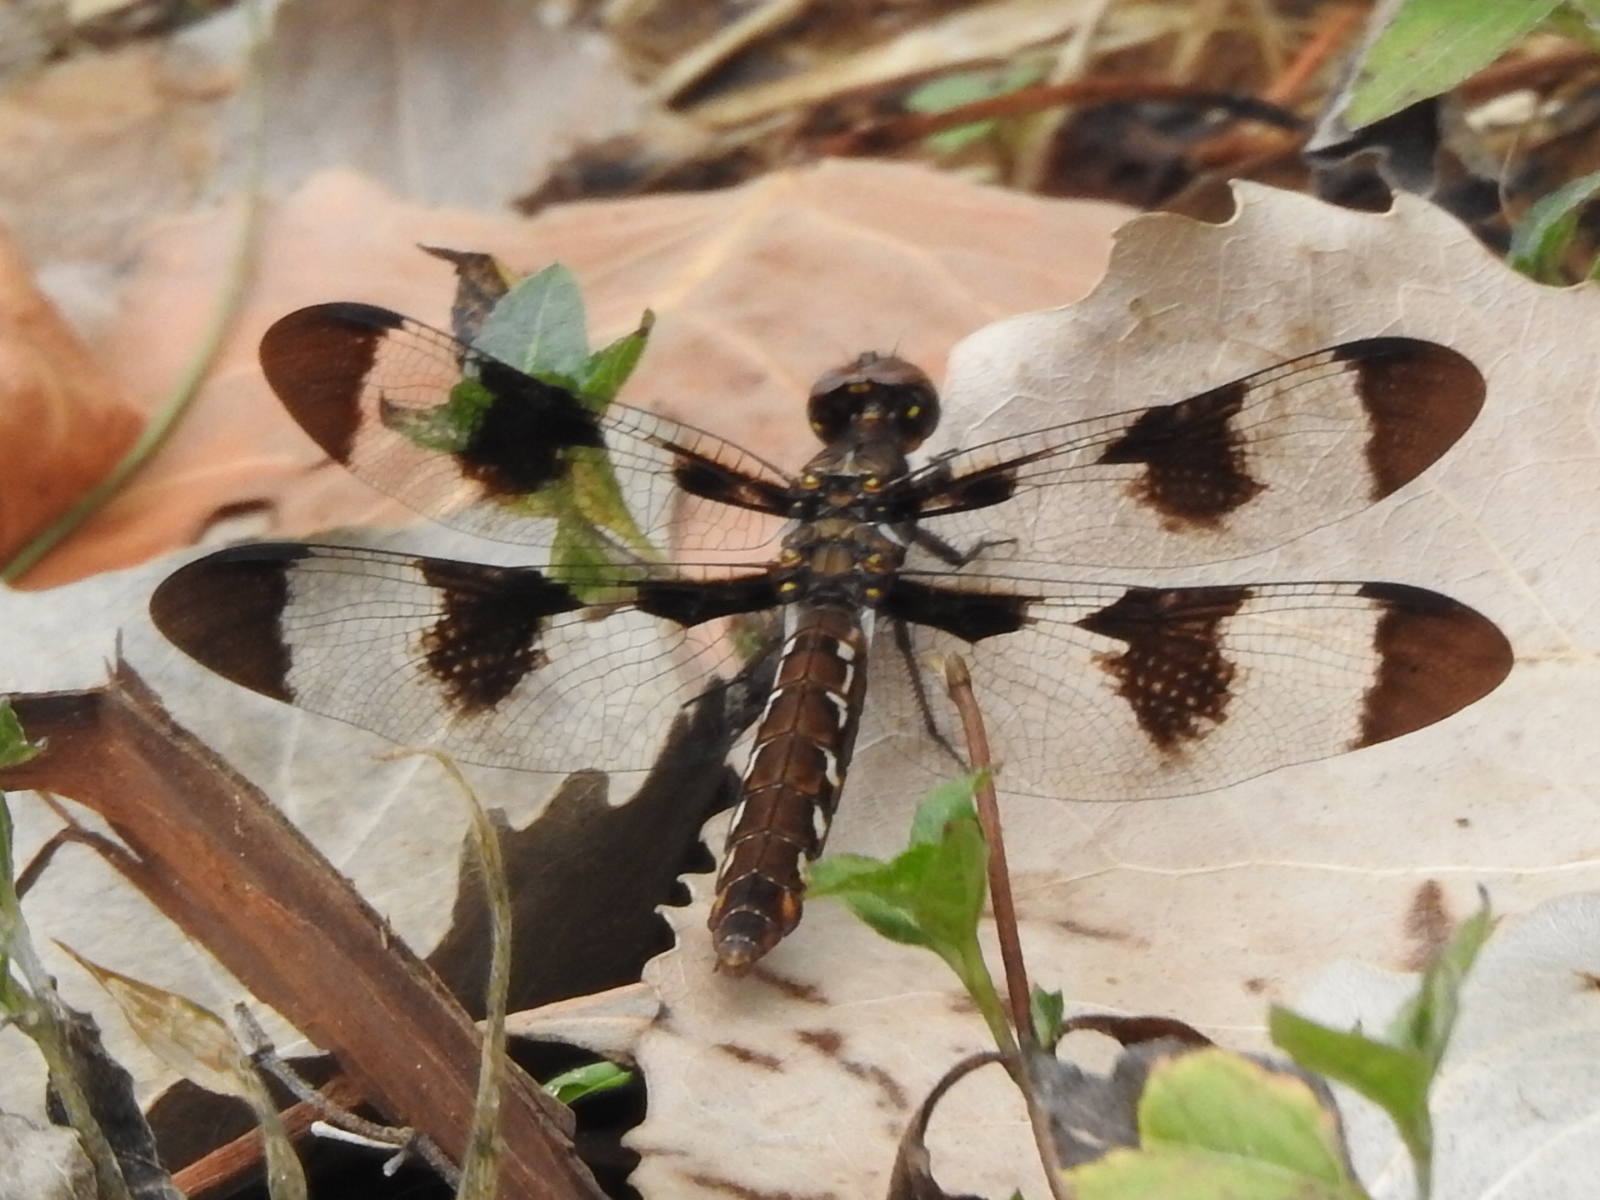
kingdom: Animalia
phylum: Arthropoda
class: Insecta
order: Odonata
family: Libellulidae
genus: Plathemis
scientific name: Plathemis lydia
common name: Common whitetail
